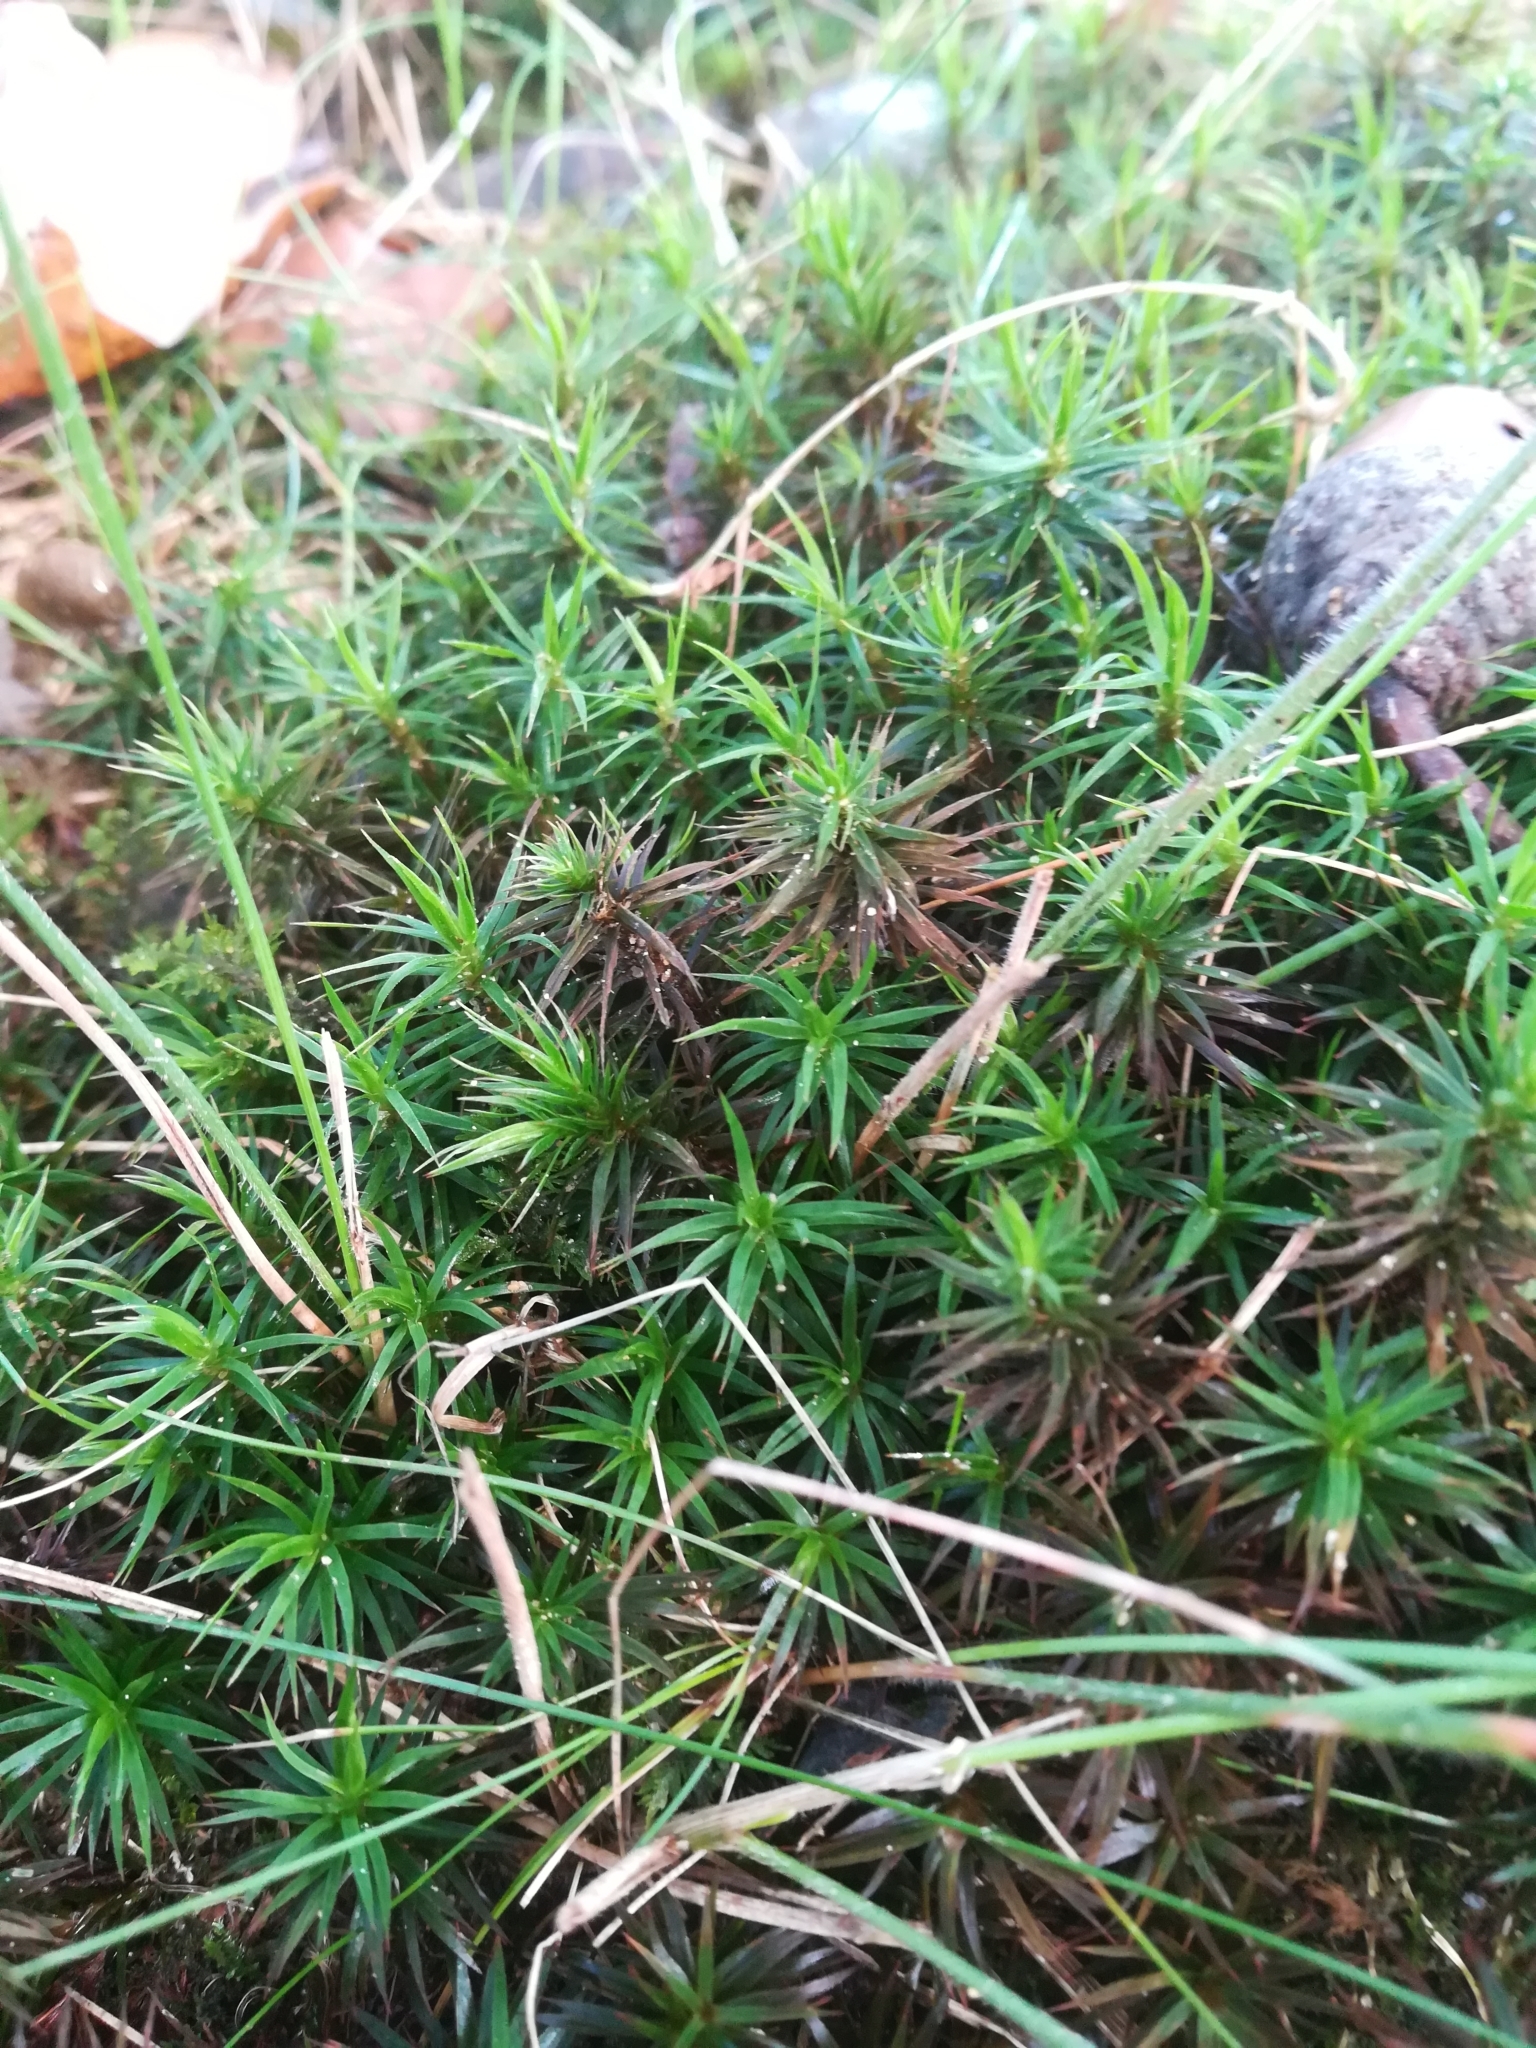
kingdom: Plantae
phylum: Bryophyta
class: Polytrichopsida
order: Polytrichales
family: Polytrichaceae
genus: Polytrichum
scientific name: Polytrichum formosum
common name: Bank haircap moss
